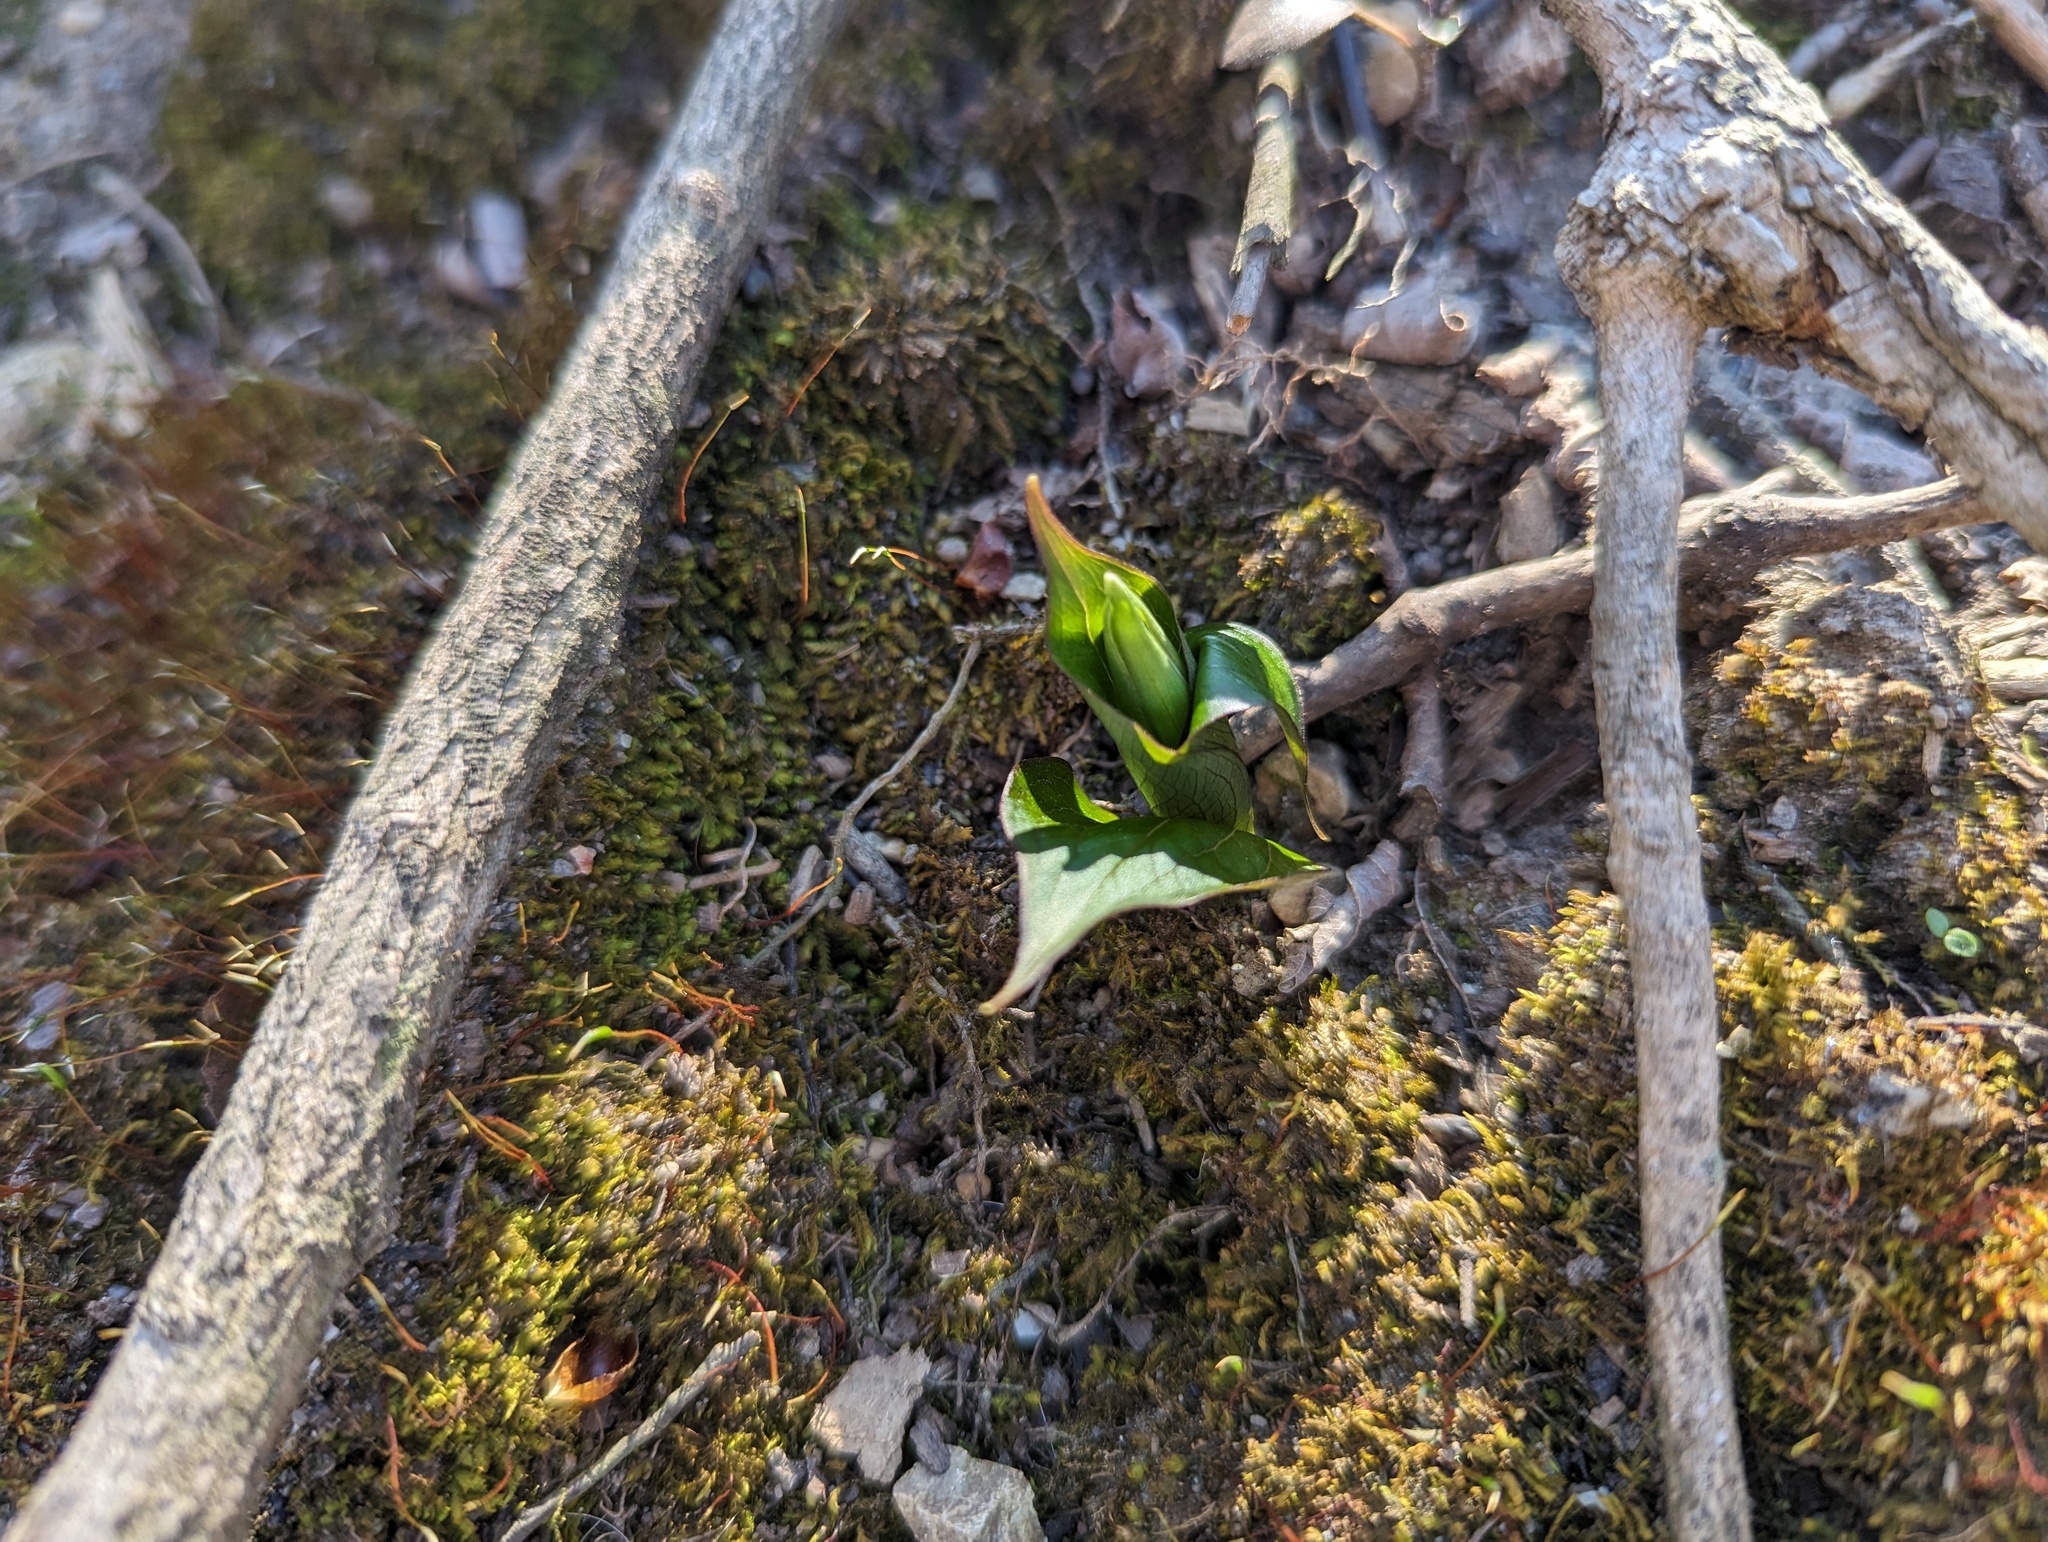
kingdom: Plantae
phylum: Tracheophyta
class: Liliopsida
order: Liliales
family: Melanthiaceae
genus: Trillium
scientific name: Trillium grandiflorum
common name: Great white trillium
